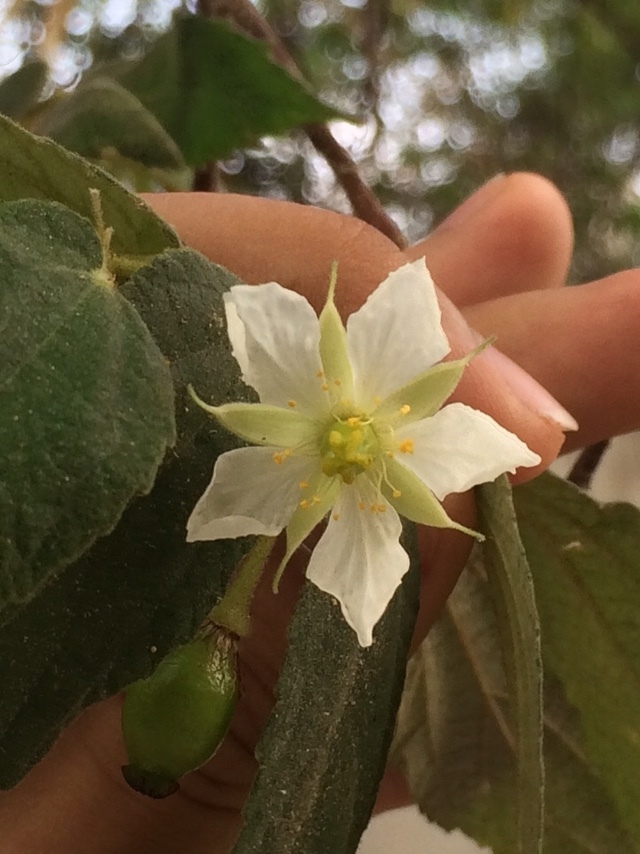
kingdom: Plantae
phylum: Tracheophyta
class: Magnoliopsida
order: Malvales
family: Muntingiaceae
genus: Muntingia
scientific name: Muntingia calabura
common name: Strawberrytree
